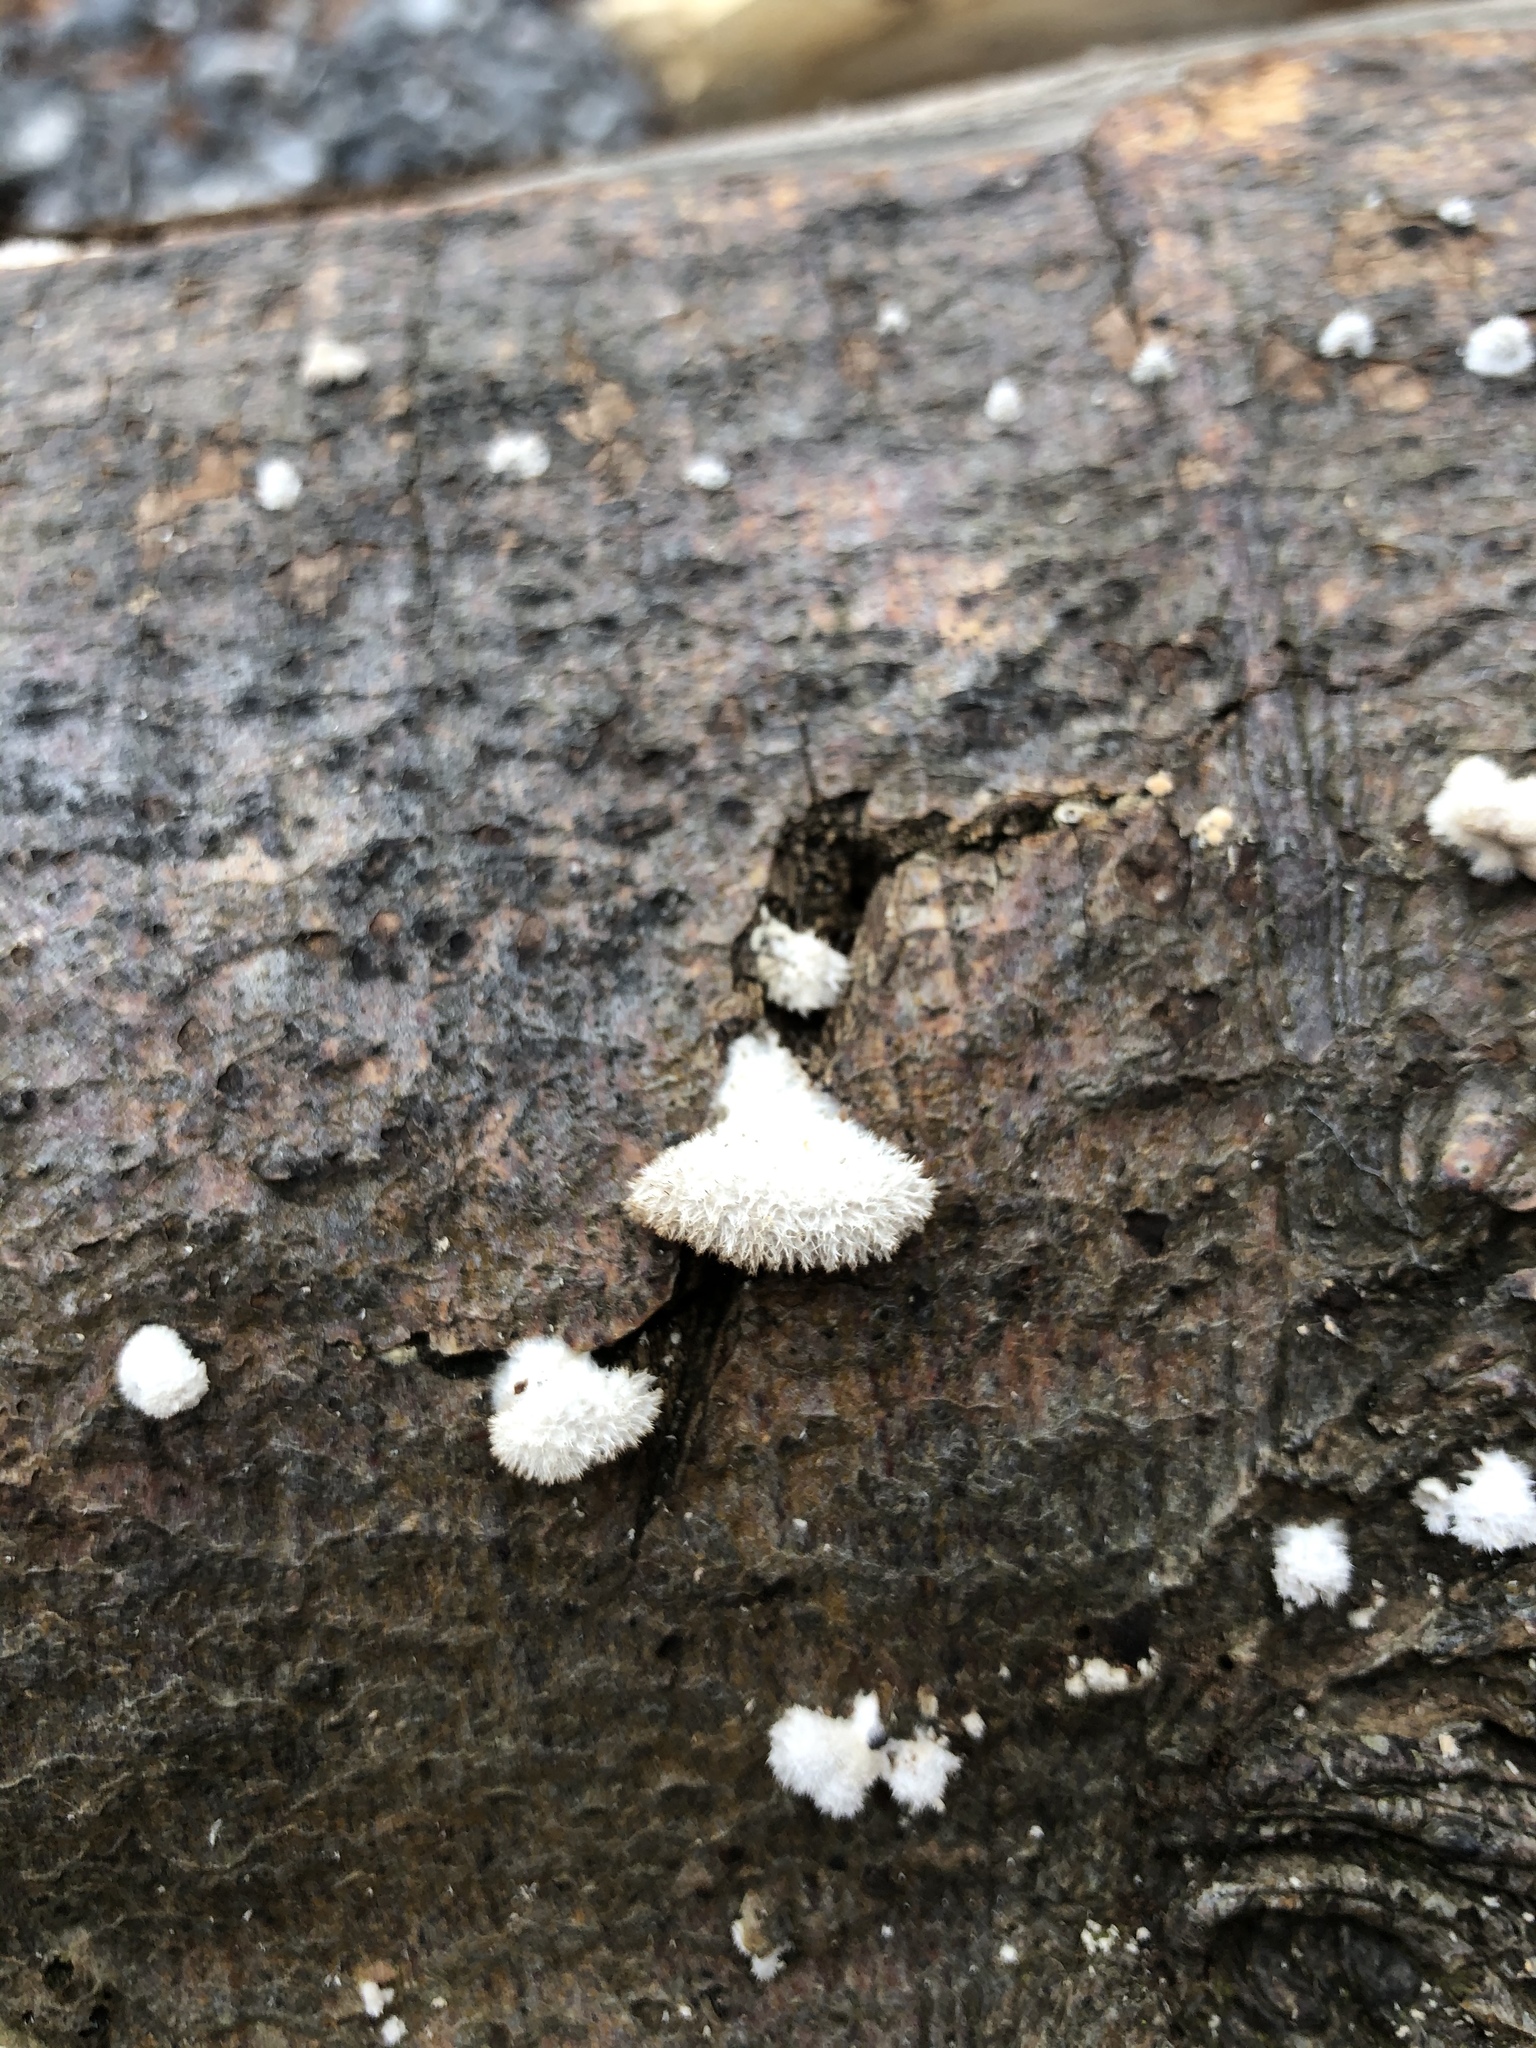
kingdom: Fungi
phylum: Basidiomycota
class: Agaricomycetes
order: Agaricales
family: Schizophyllaceae
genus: Schizophyllum
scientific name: Schizophyllum commune
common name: Common porecrust
